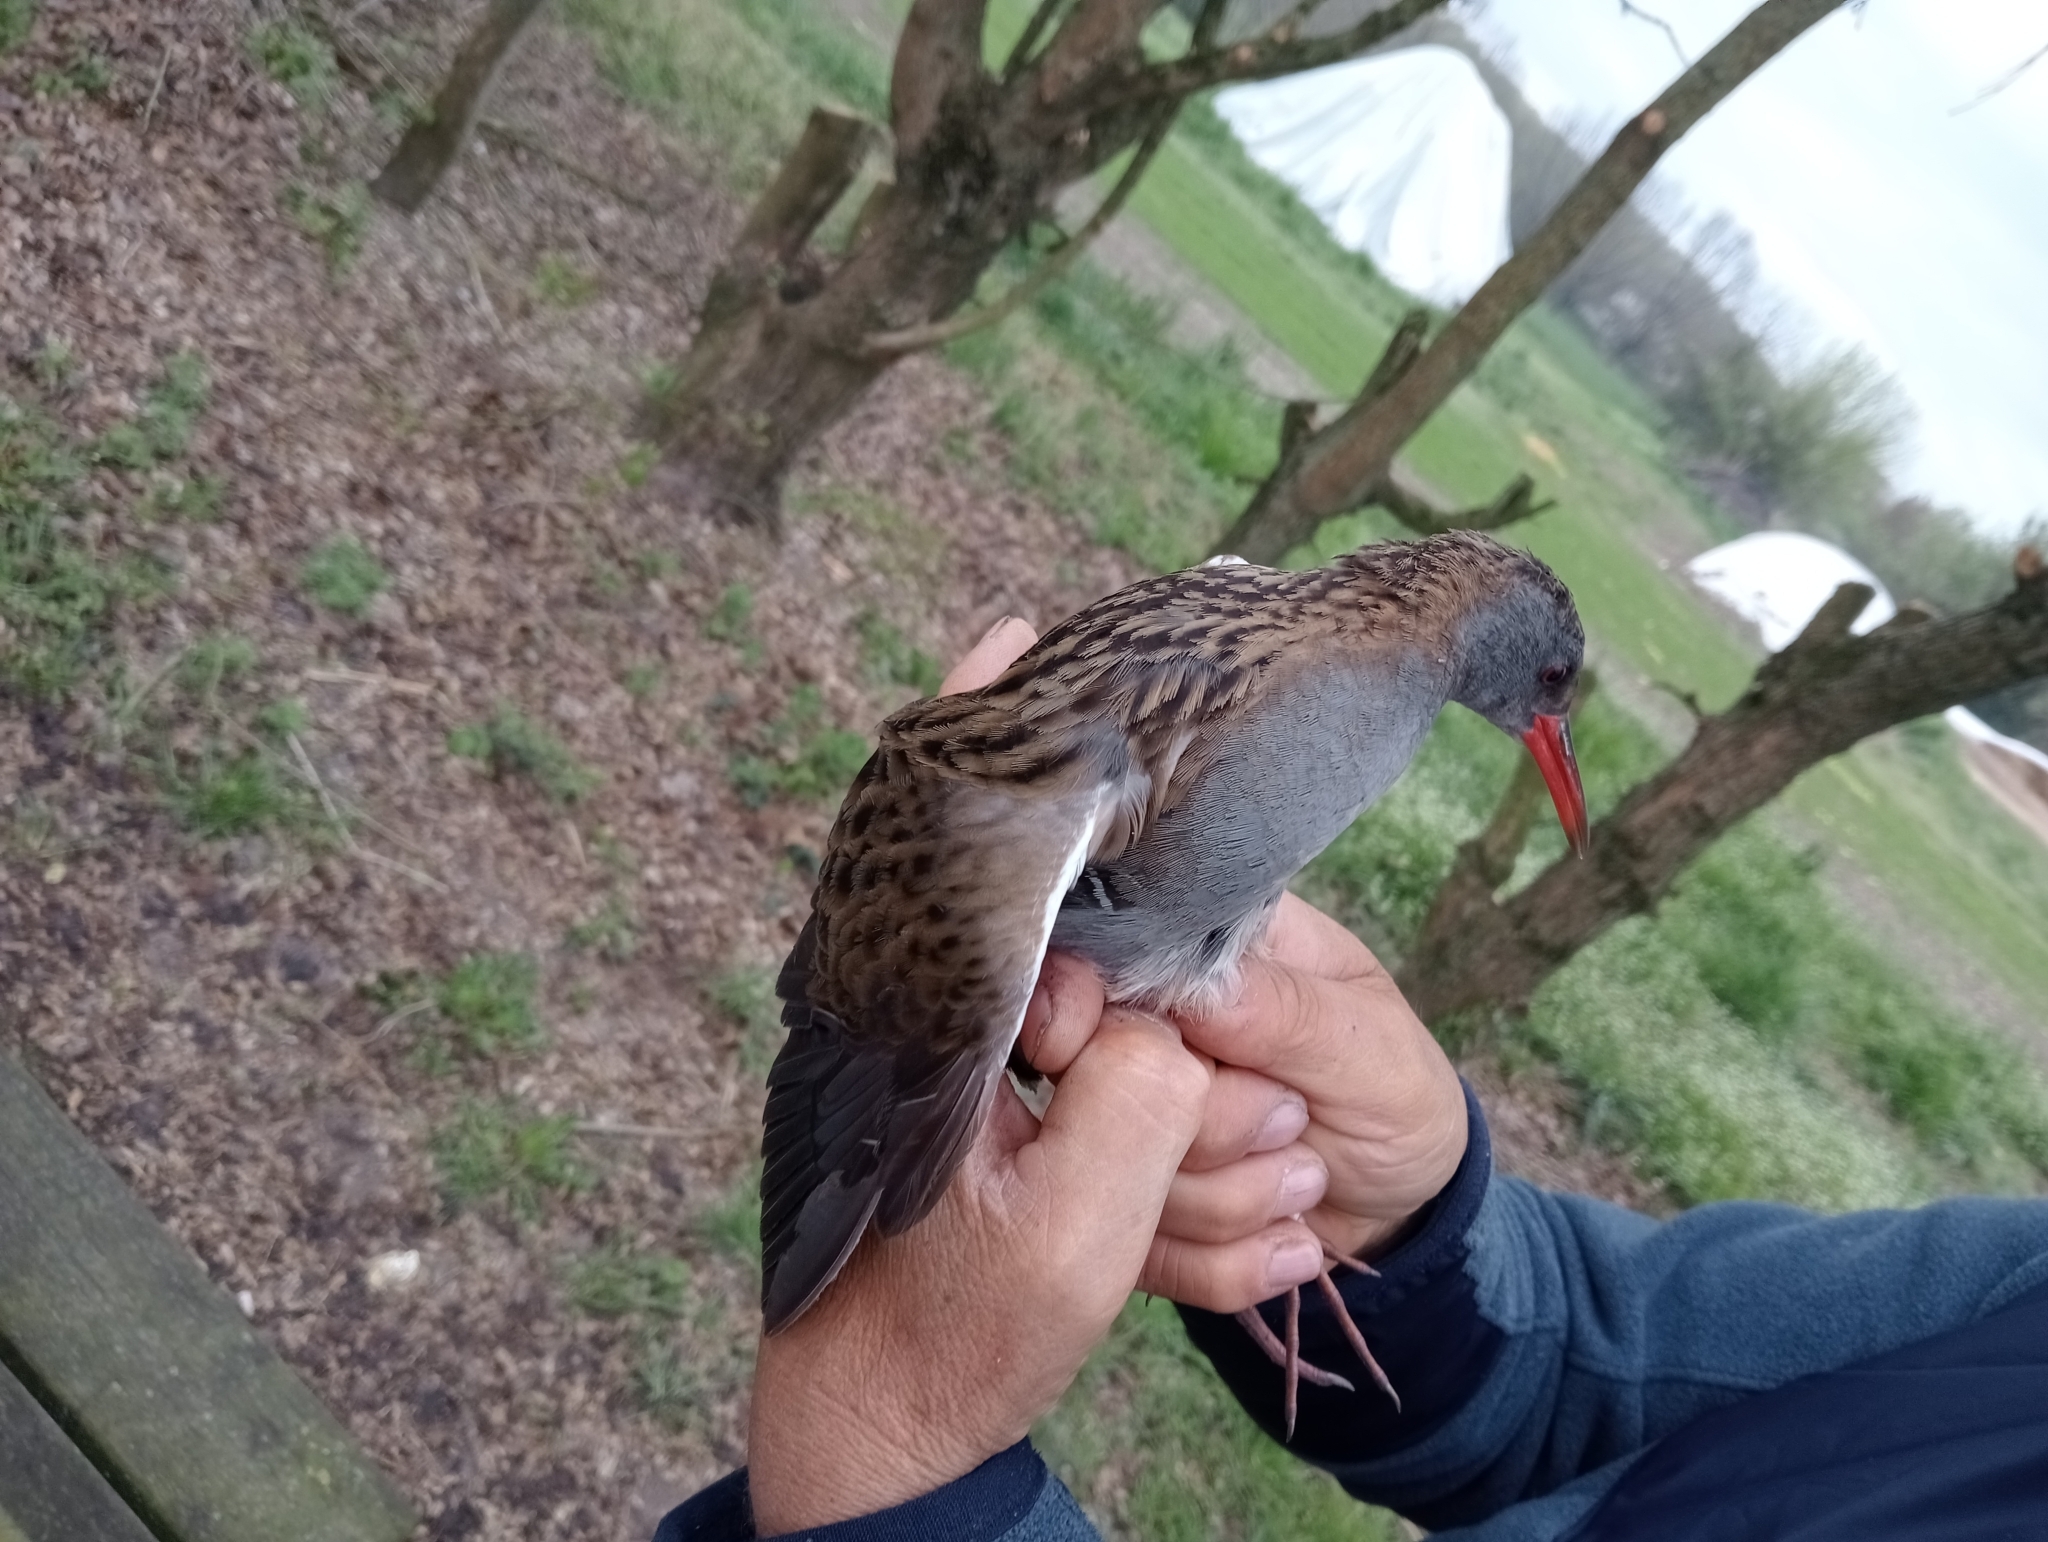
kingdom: Animalia
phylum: Chordata
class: Aves
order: Gruiformes
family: Rallidae
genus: Rallus
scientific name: Rallus aquaticus
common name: Water rail
